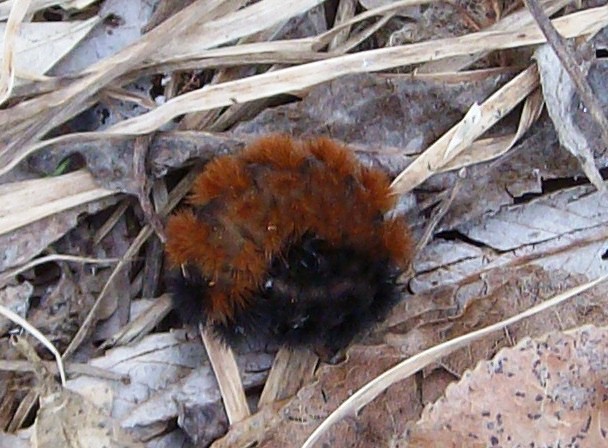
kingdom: Animalia
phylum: Arthropoda
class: Insecta
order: Lepidoptera
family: Erebidae
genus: Pyrrharctia
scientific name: Pyrrharctia isabella
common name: Isabella tiger moth
